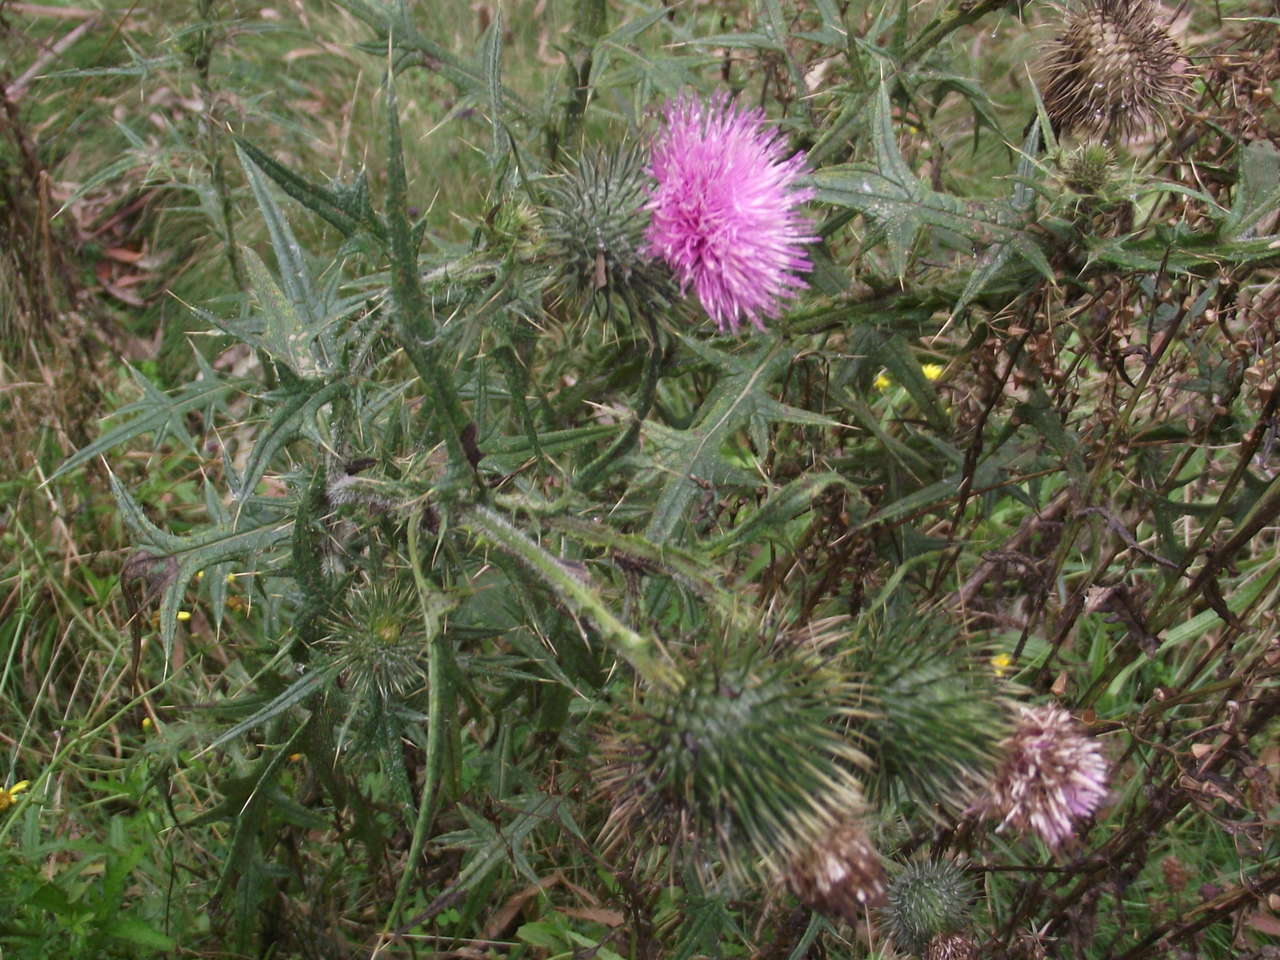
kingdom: Plantae
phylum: Tracheophyta
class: Magnoliopsida
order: Asterales
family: Asteraceae
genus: Cirsium
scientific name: Cirsium vulgare
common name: Bull thistle
